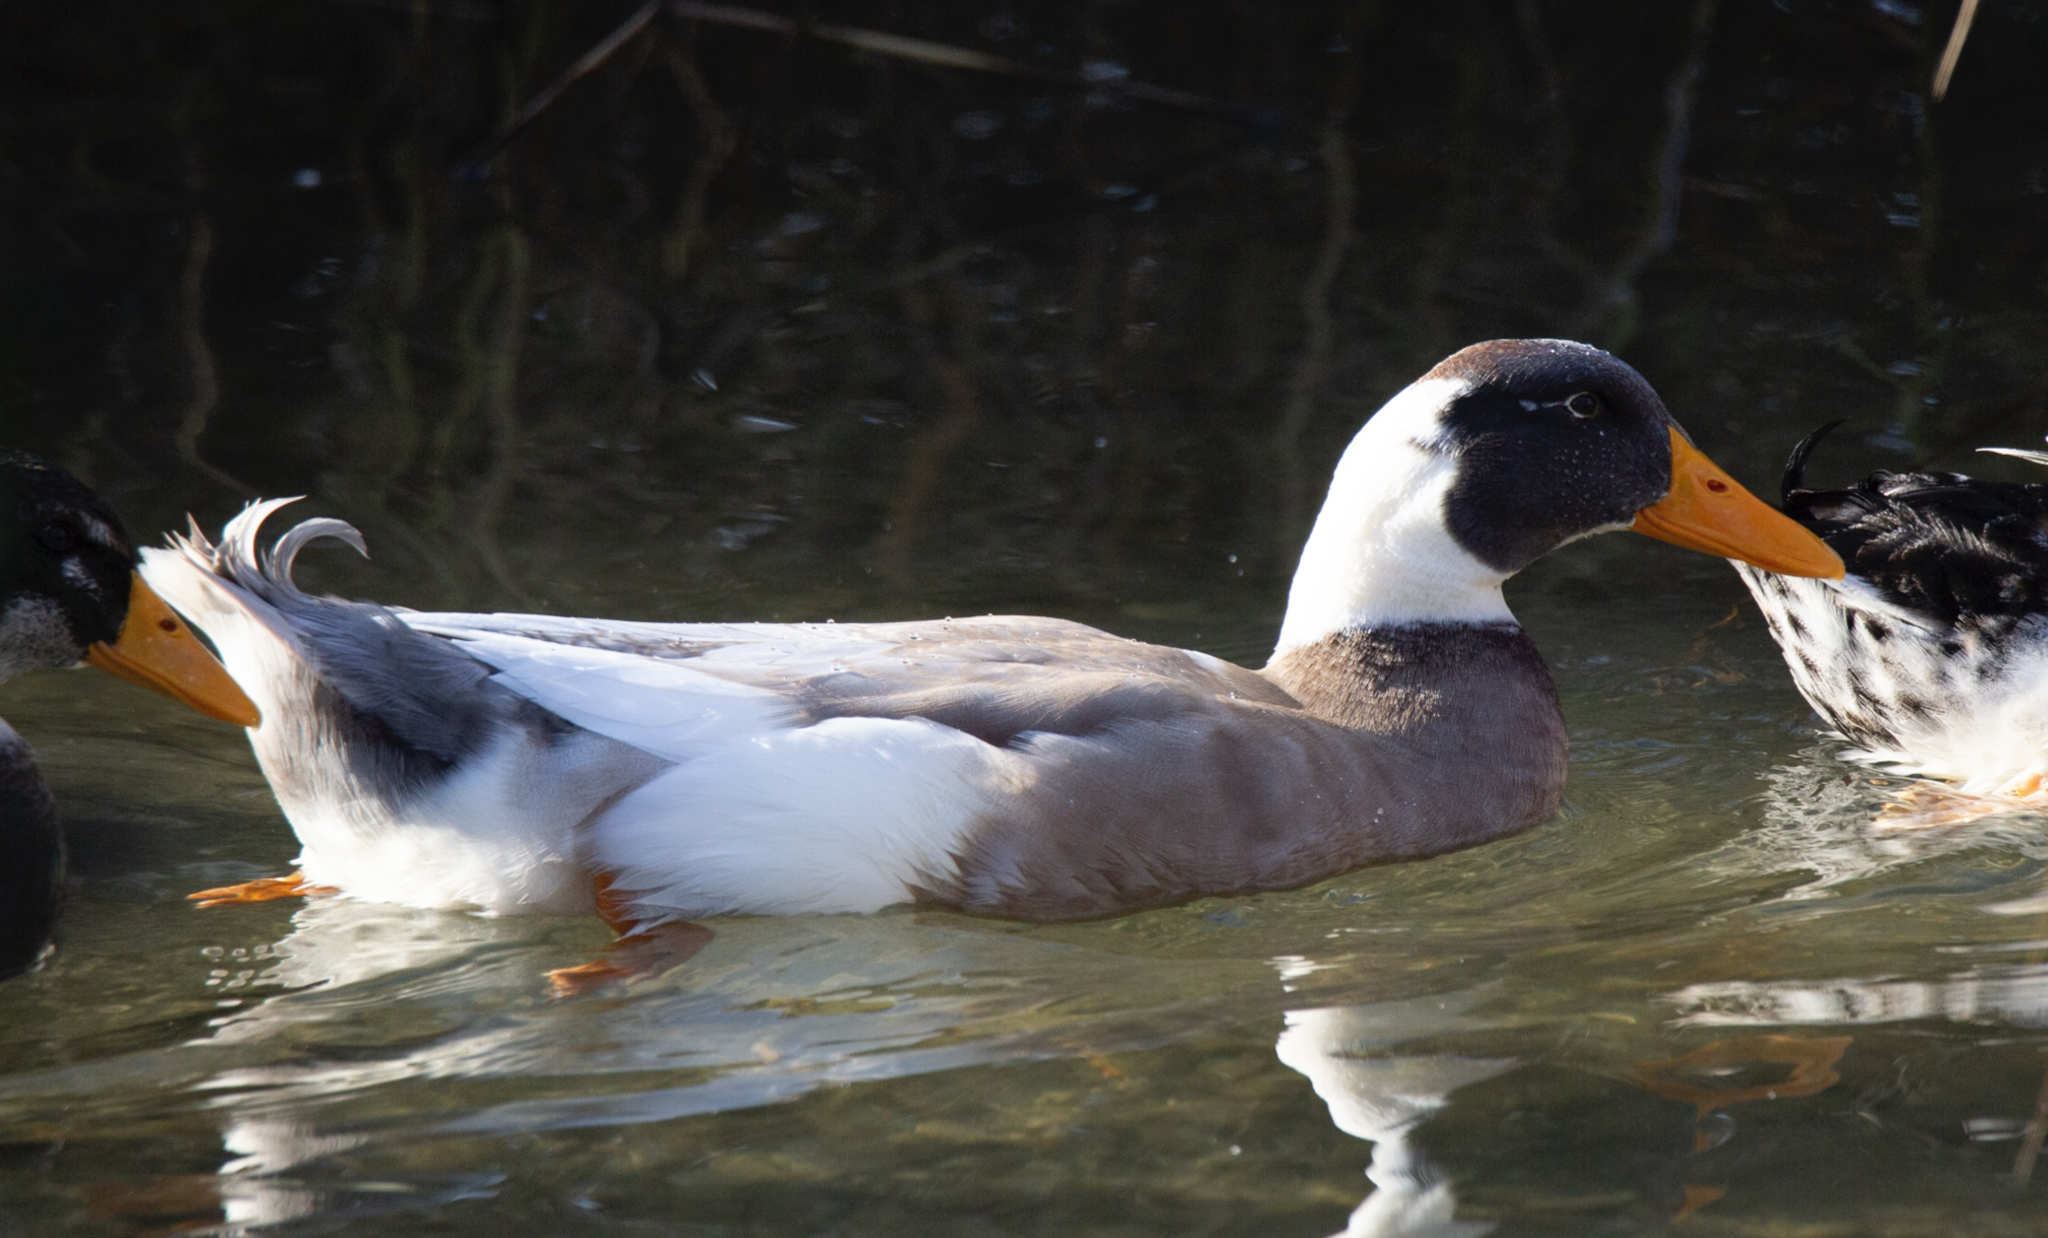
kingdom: Animalia
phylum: Chordata
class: Aves
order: Anseriformes
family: Anatidae
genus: Anas
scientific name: Anas platyrhynchos
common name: Mallard
